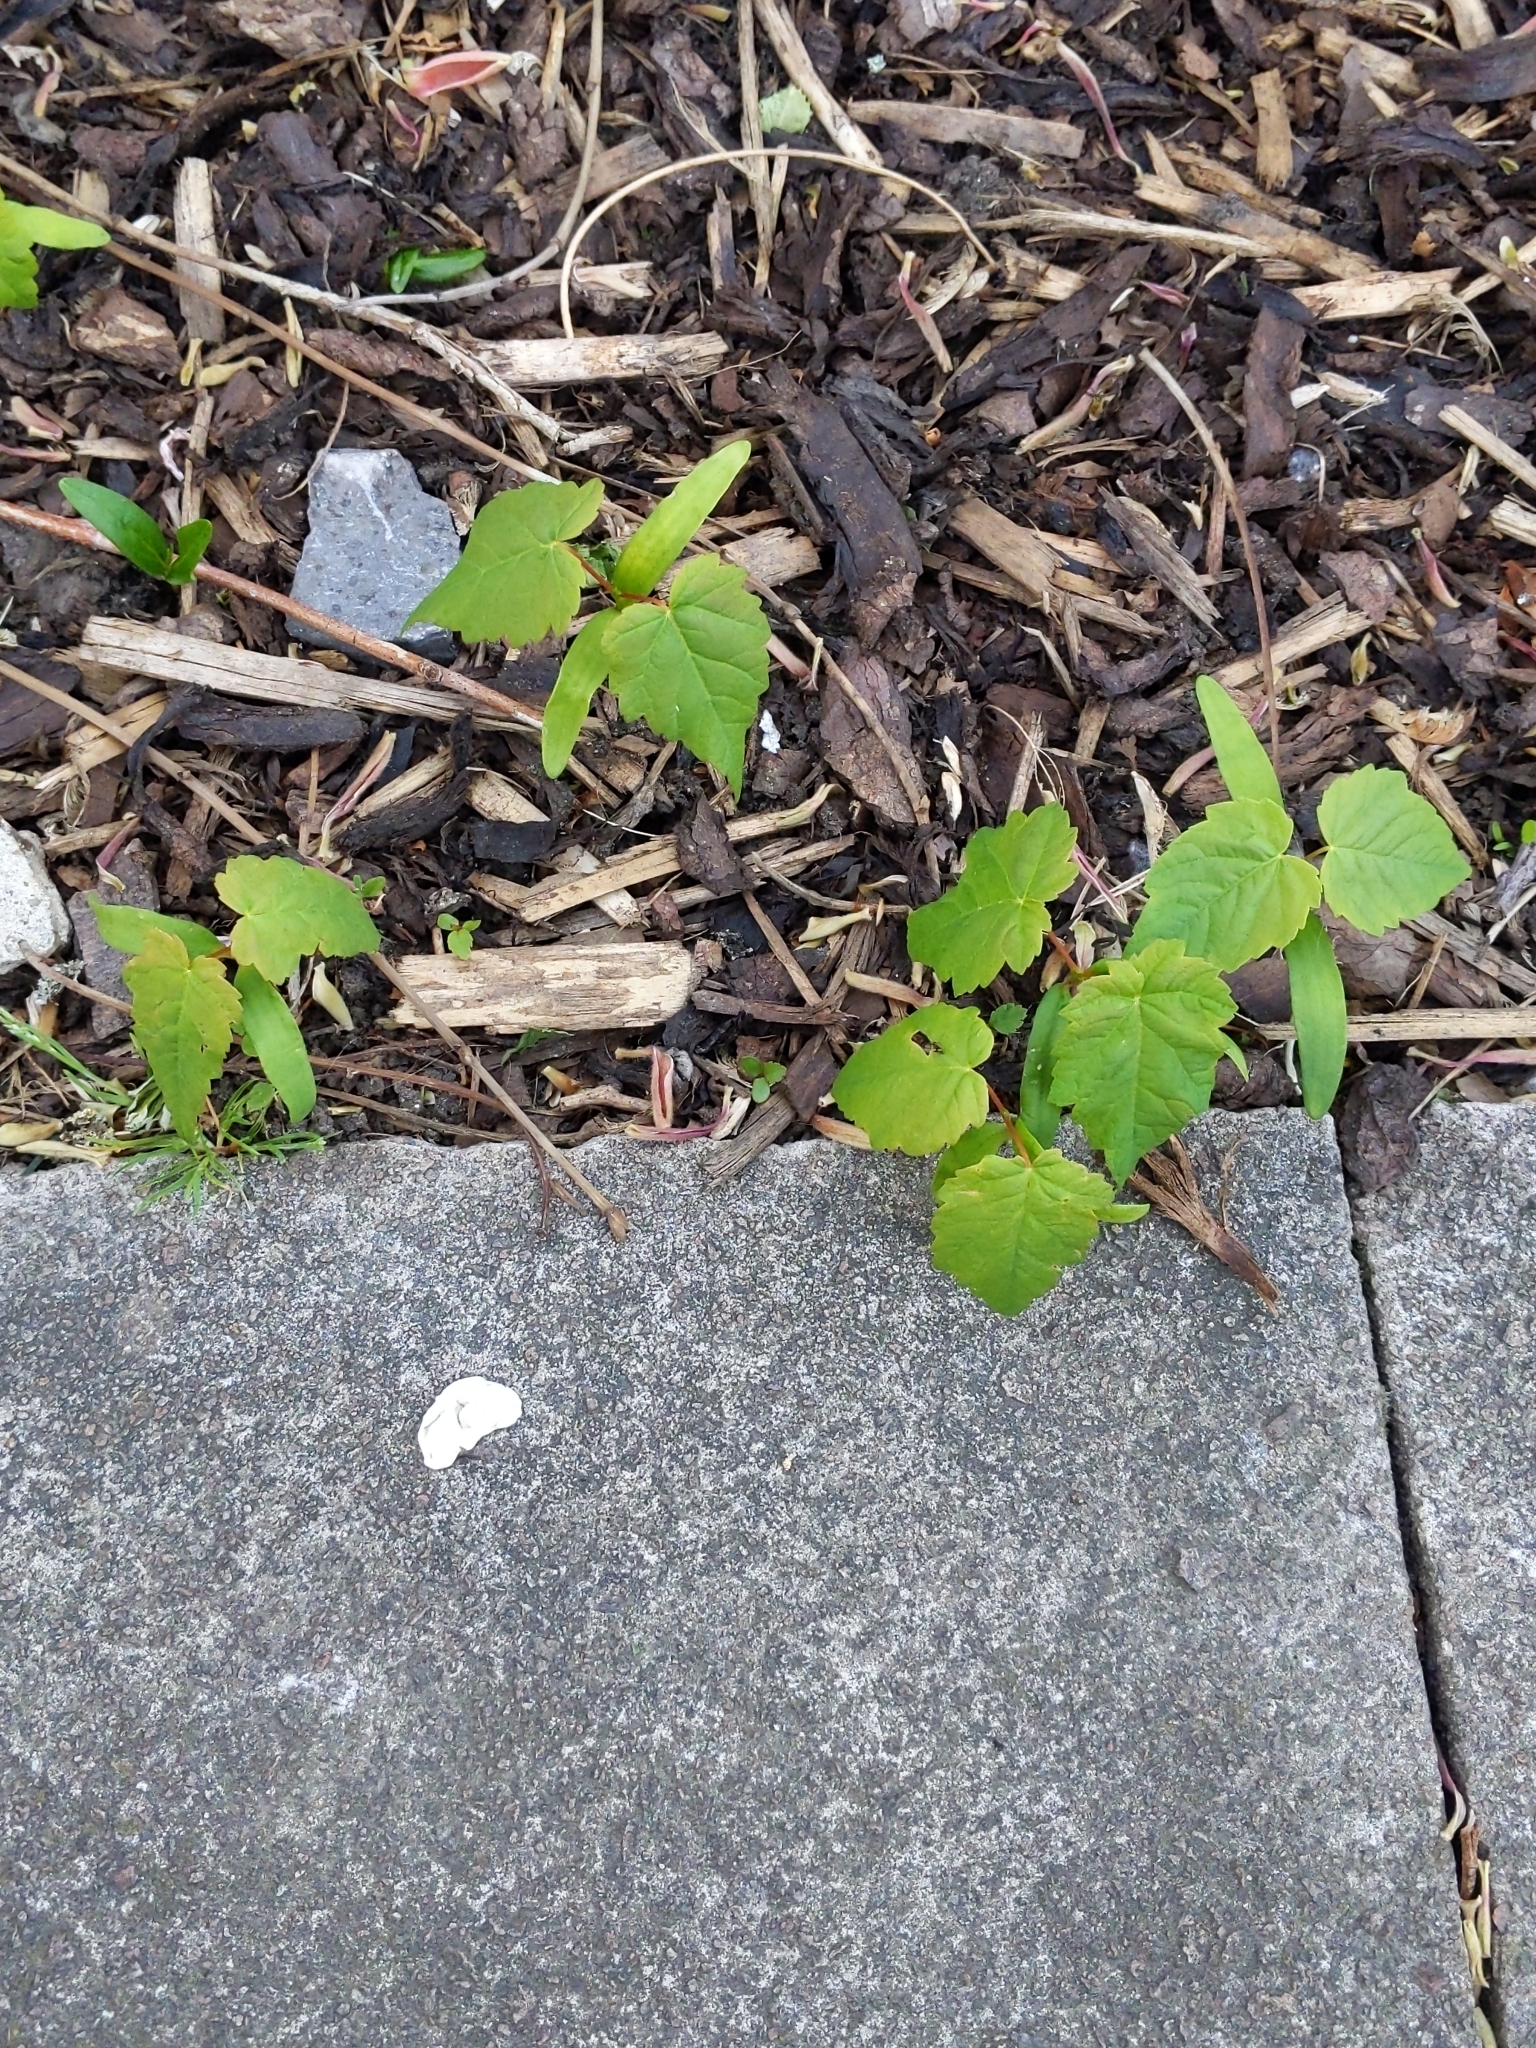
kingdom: Plantae
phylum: Tracheophyta
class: Magnoliopsida
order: Sapindales
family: Sapindaceae
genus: Acer
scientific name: Acer pseudoplatanus
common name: Sycamore
